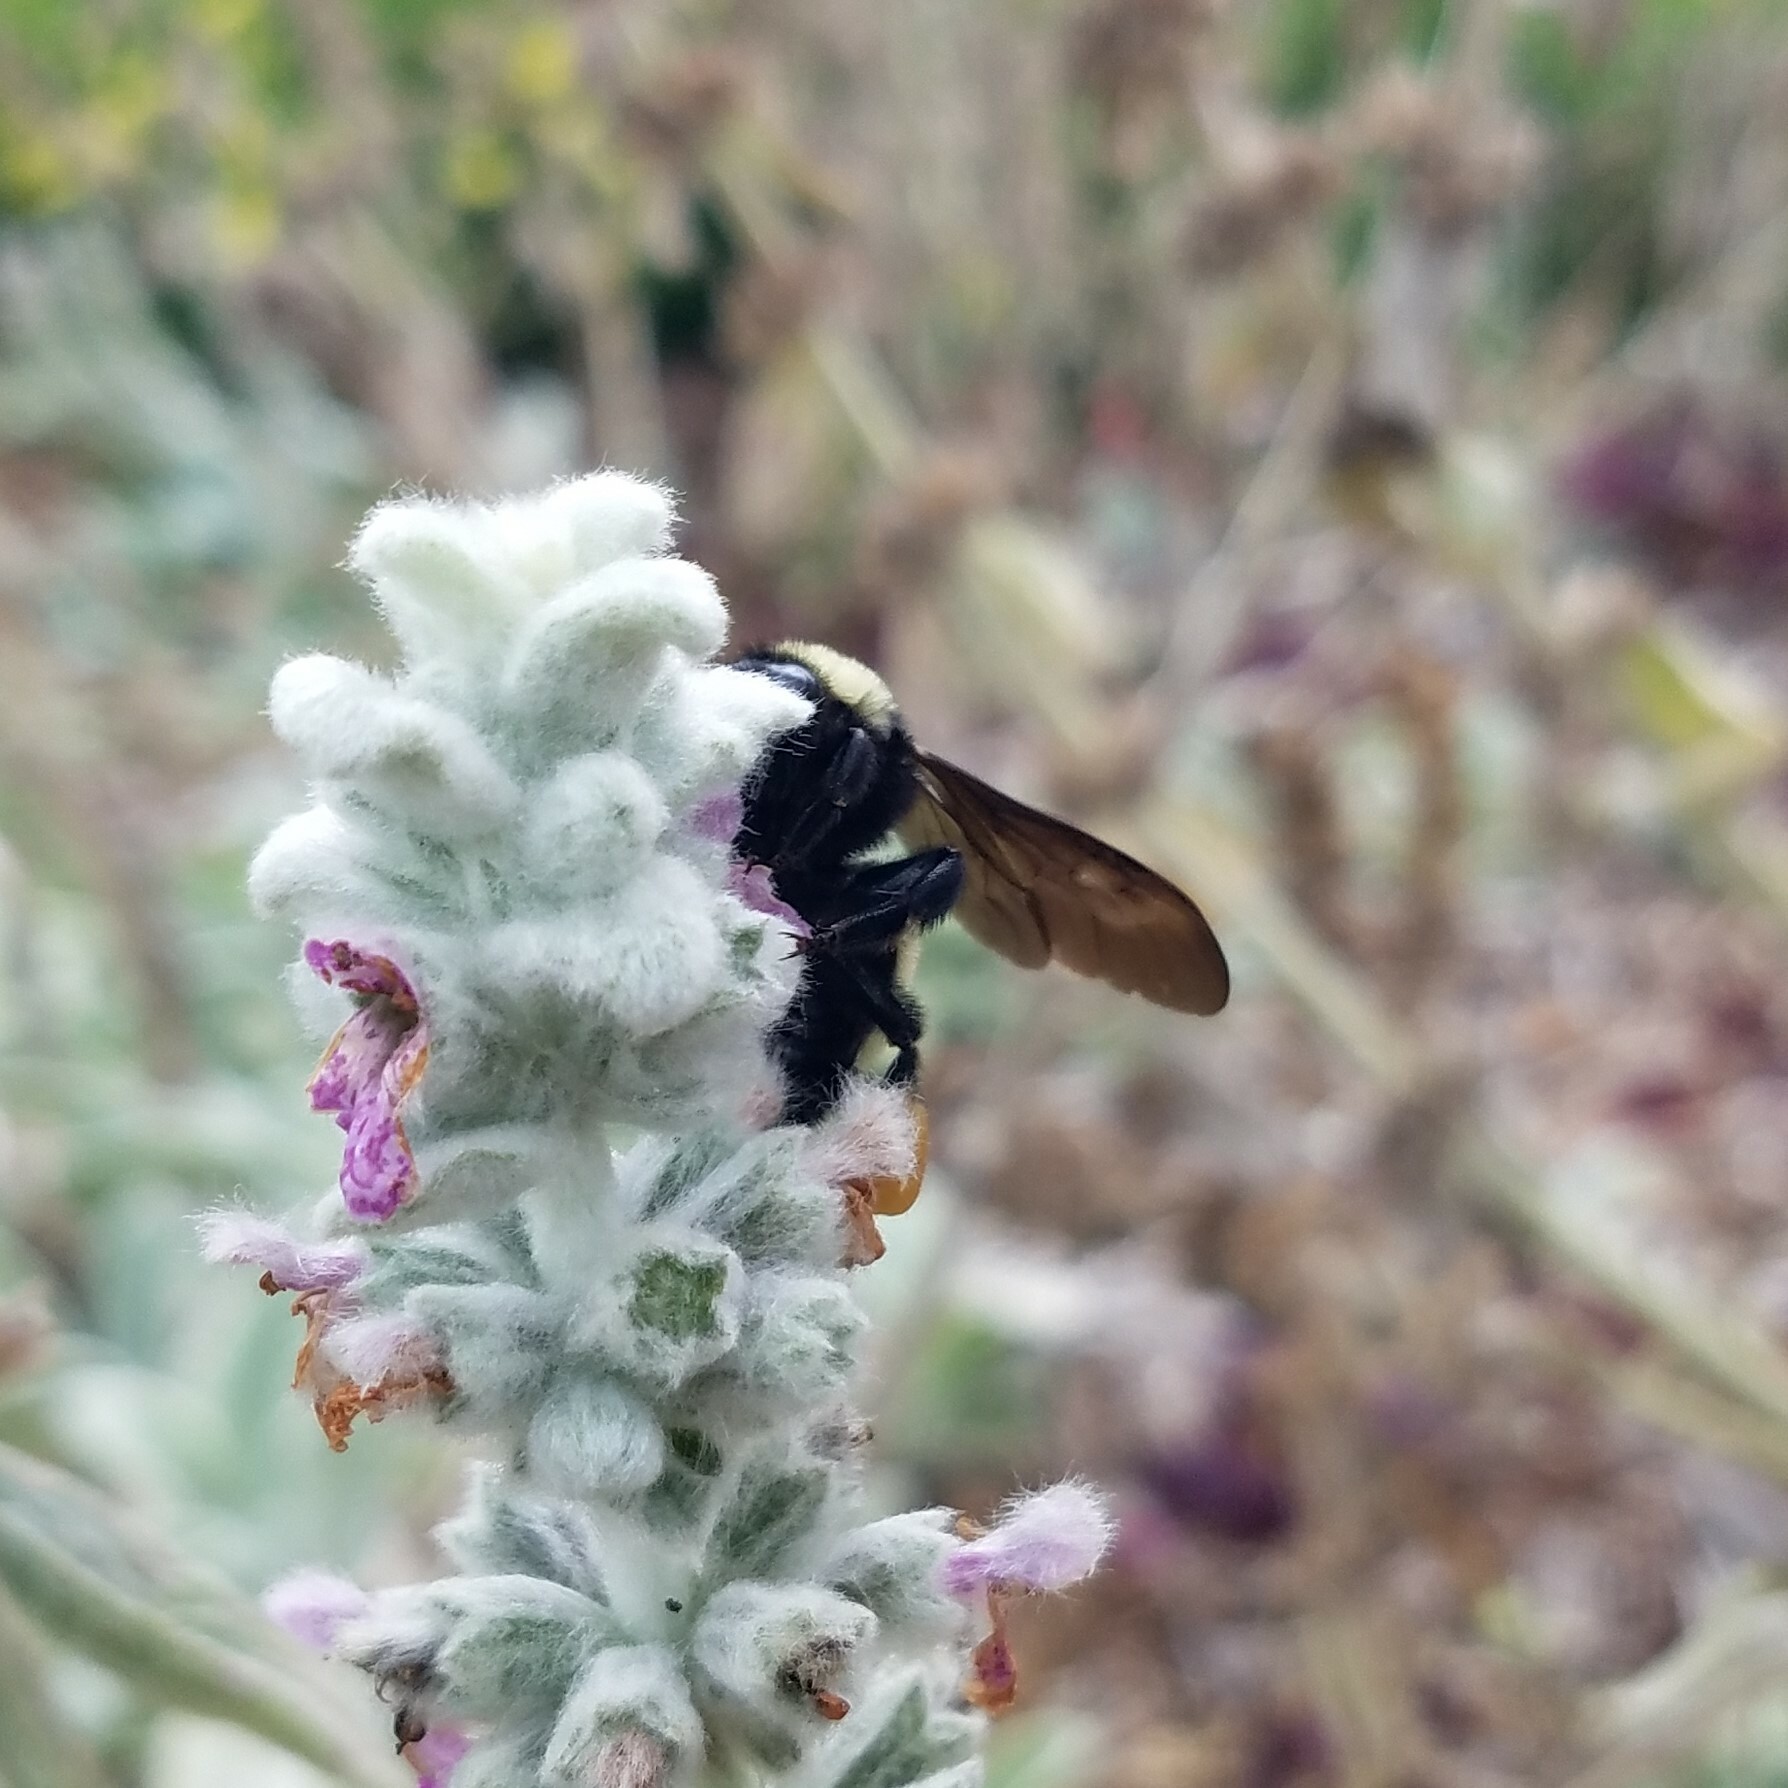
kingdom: Animalia
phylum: Arthropoda
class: Insecta
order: Hymenoptera
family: Apidae
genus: Bombus
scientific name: Bombus pensylvanicus
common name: Bumble bee
